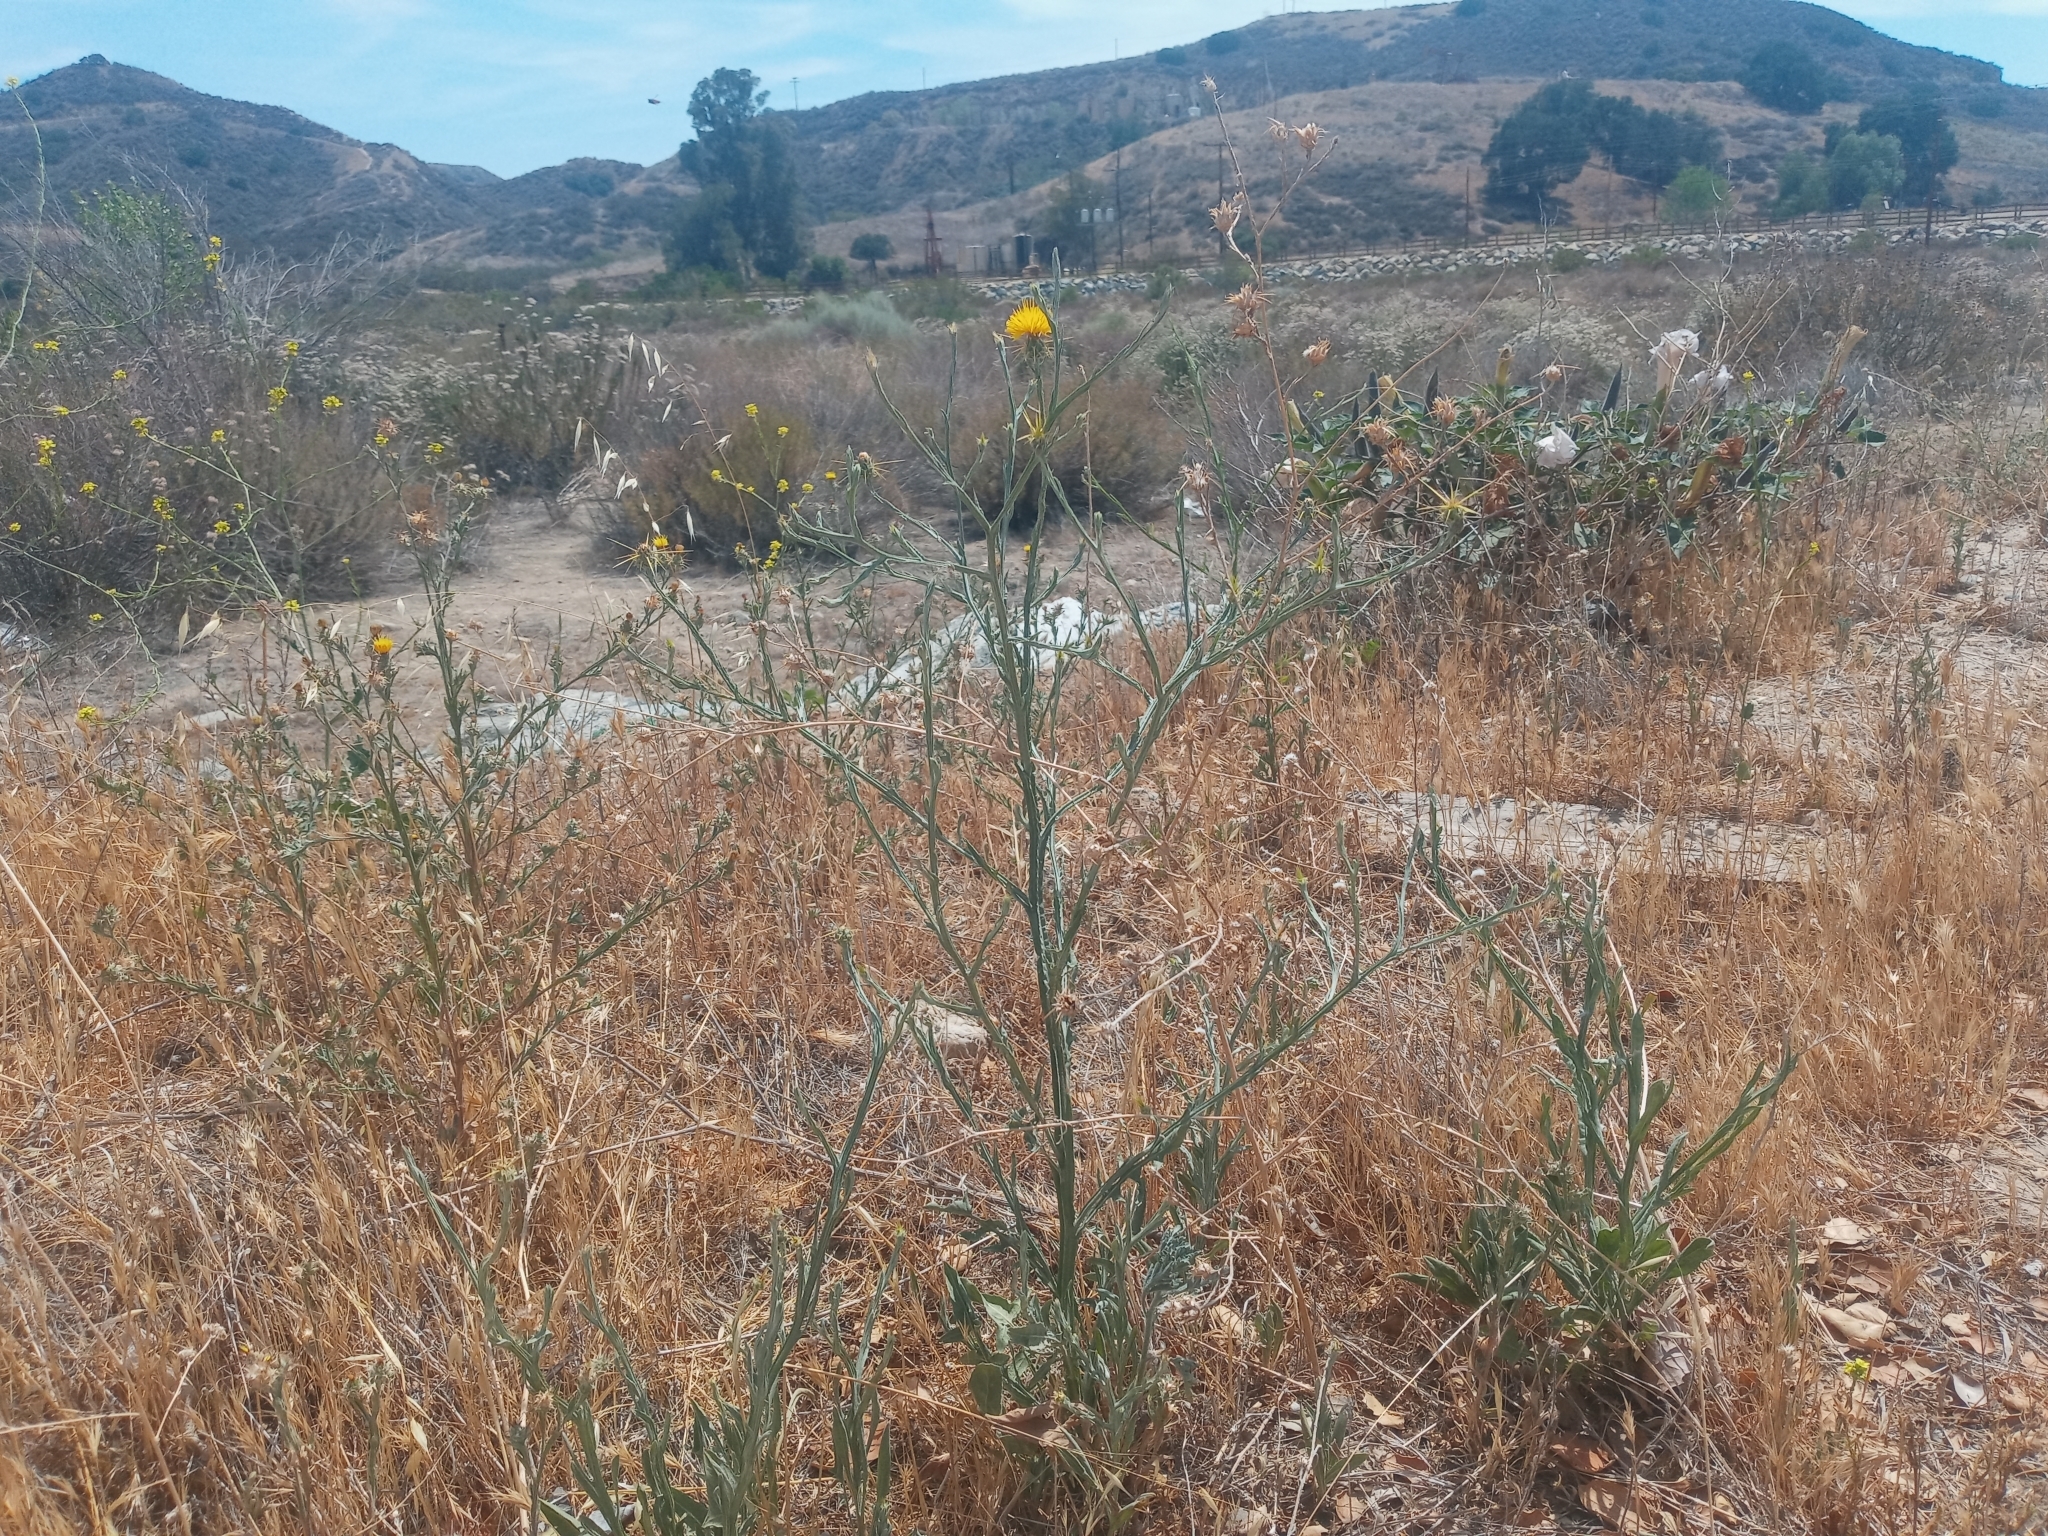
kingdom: Plantae
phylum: Tracheophyta
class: Magnoliopsida
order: Asterales
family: Asteraceae
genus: Centaurea
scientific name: Centaurea solstitialis
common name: Yellow star-thistle
